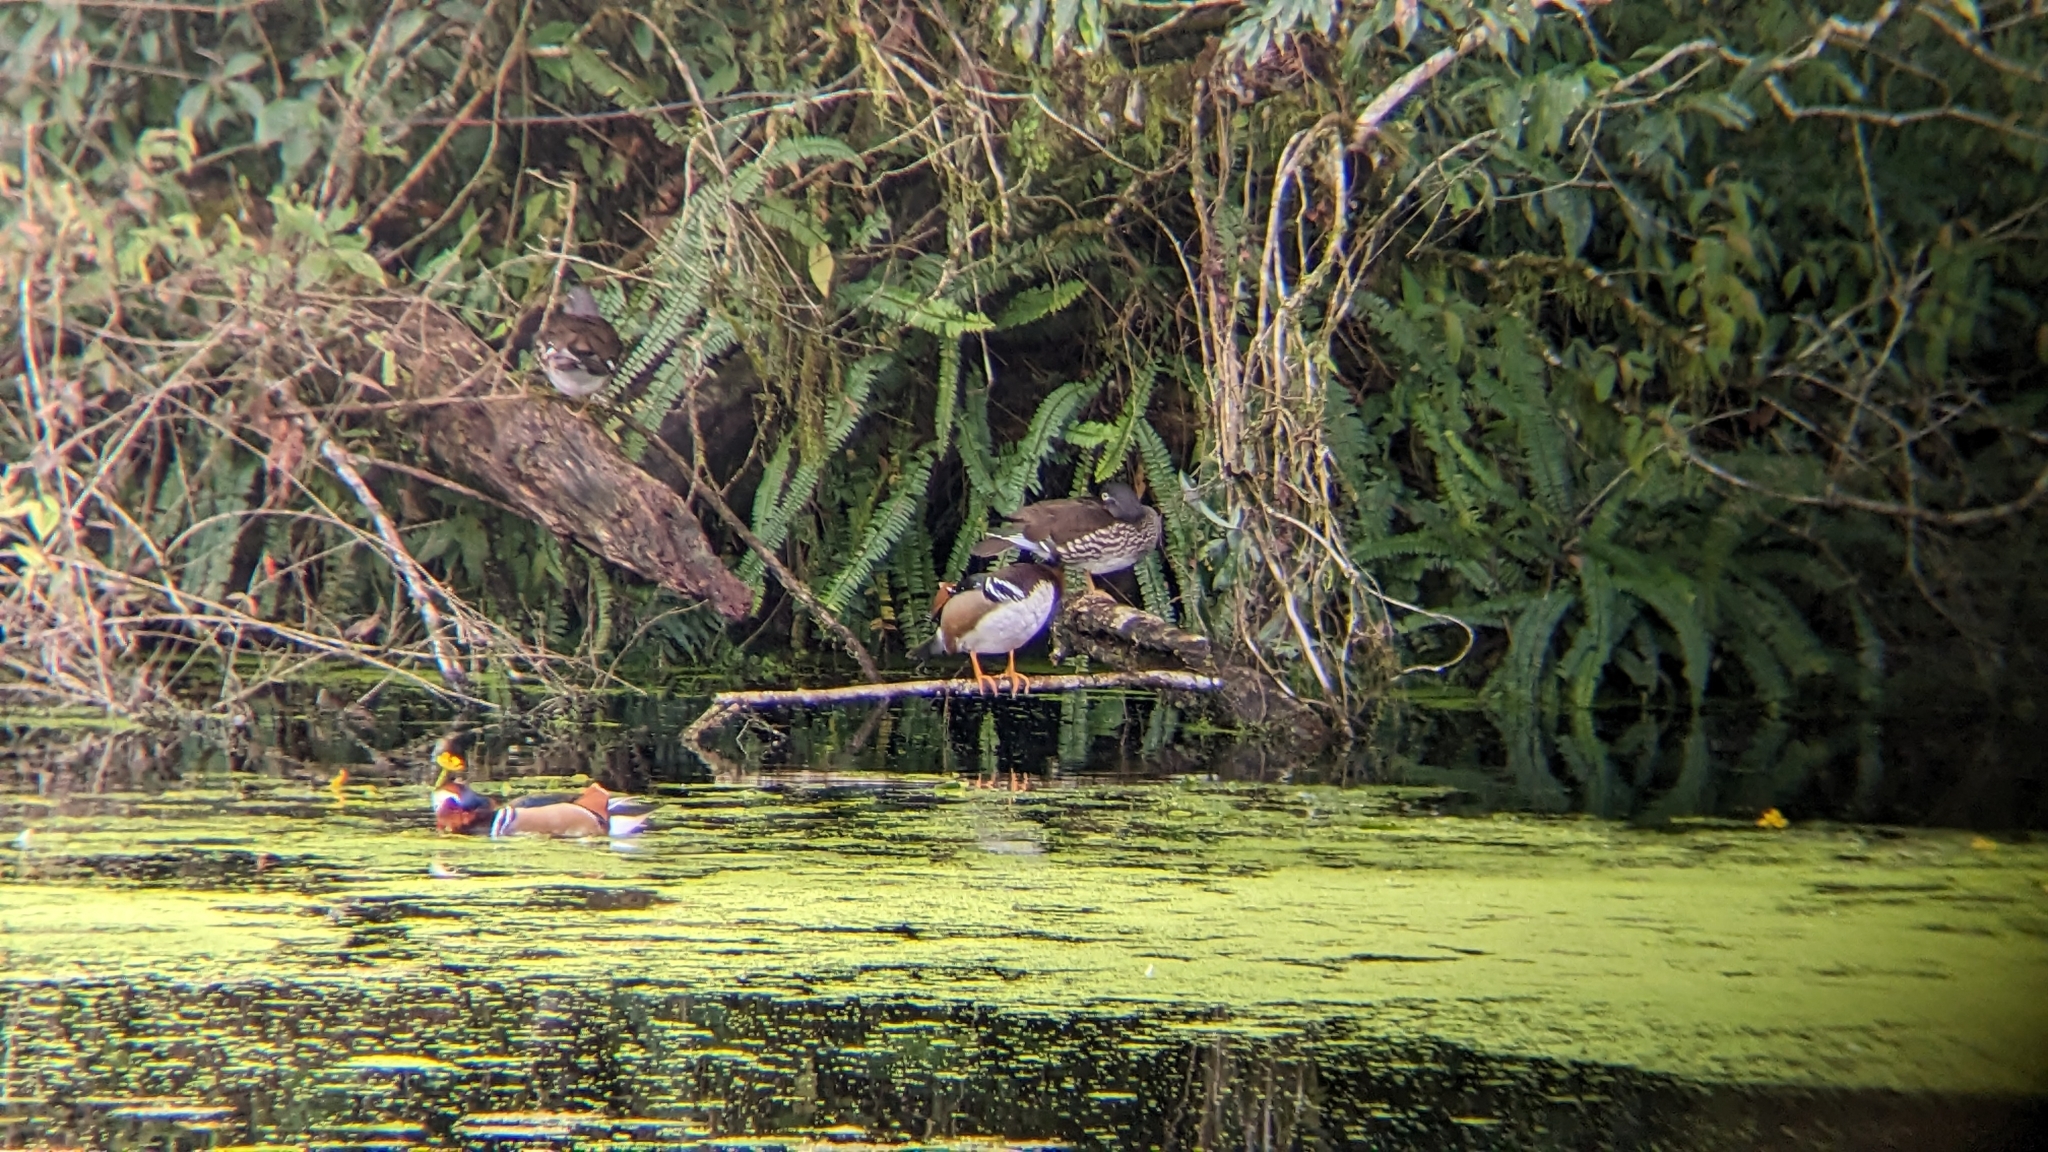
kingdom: Animalia
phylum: Chordata
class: Aves
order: Anseriformes
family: Anatidae
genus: Aix
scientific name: Aix galericulata
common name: Mandarin duck
